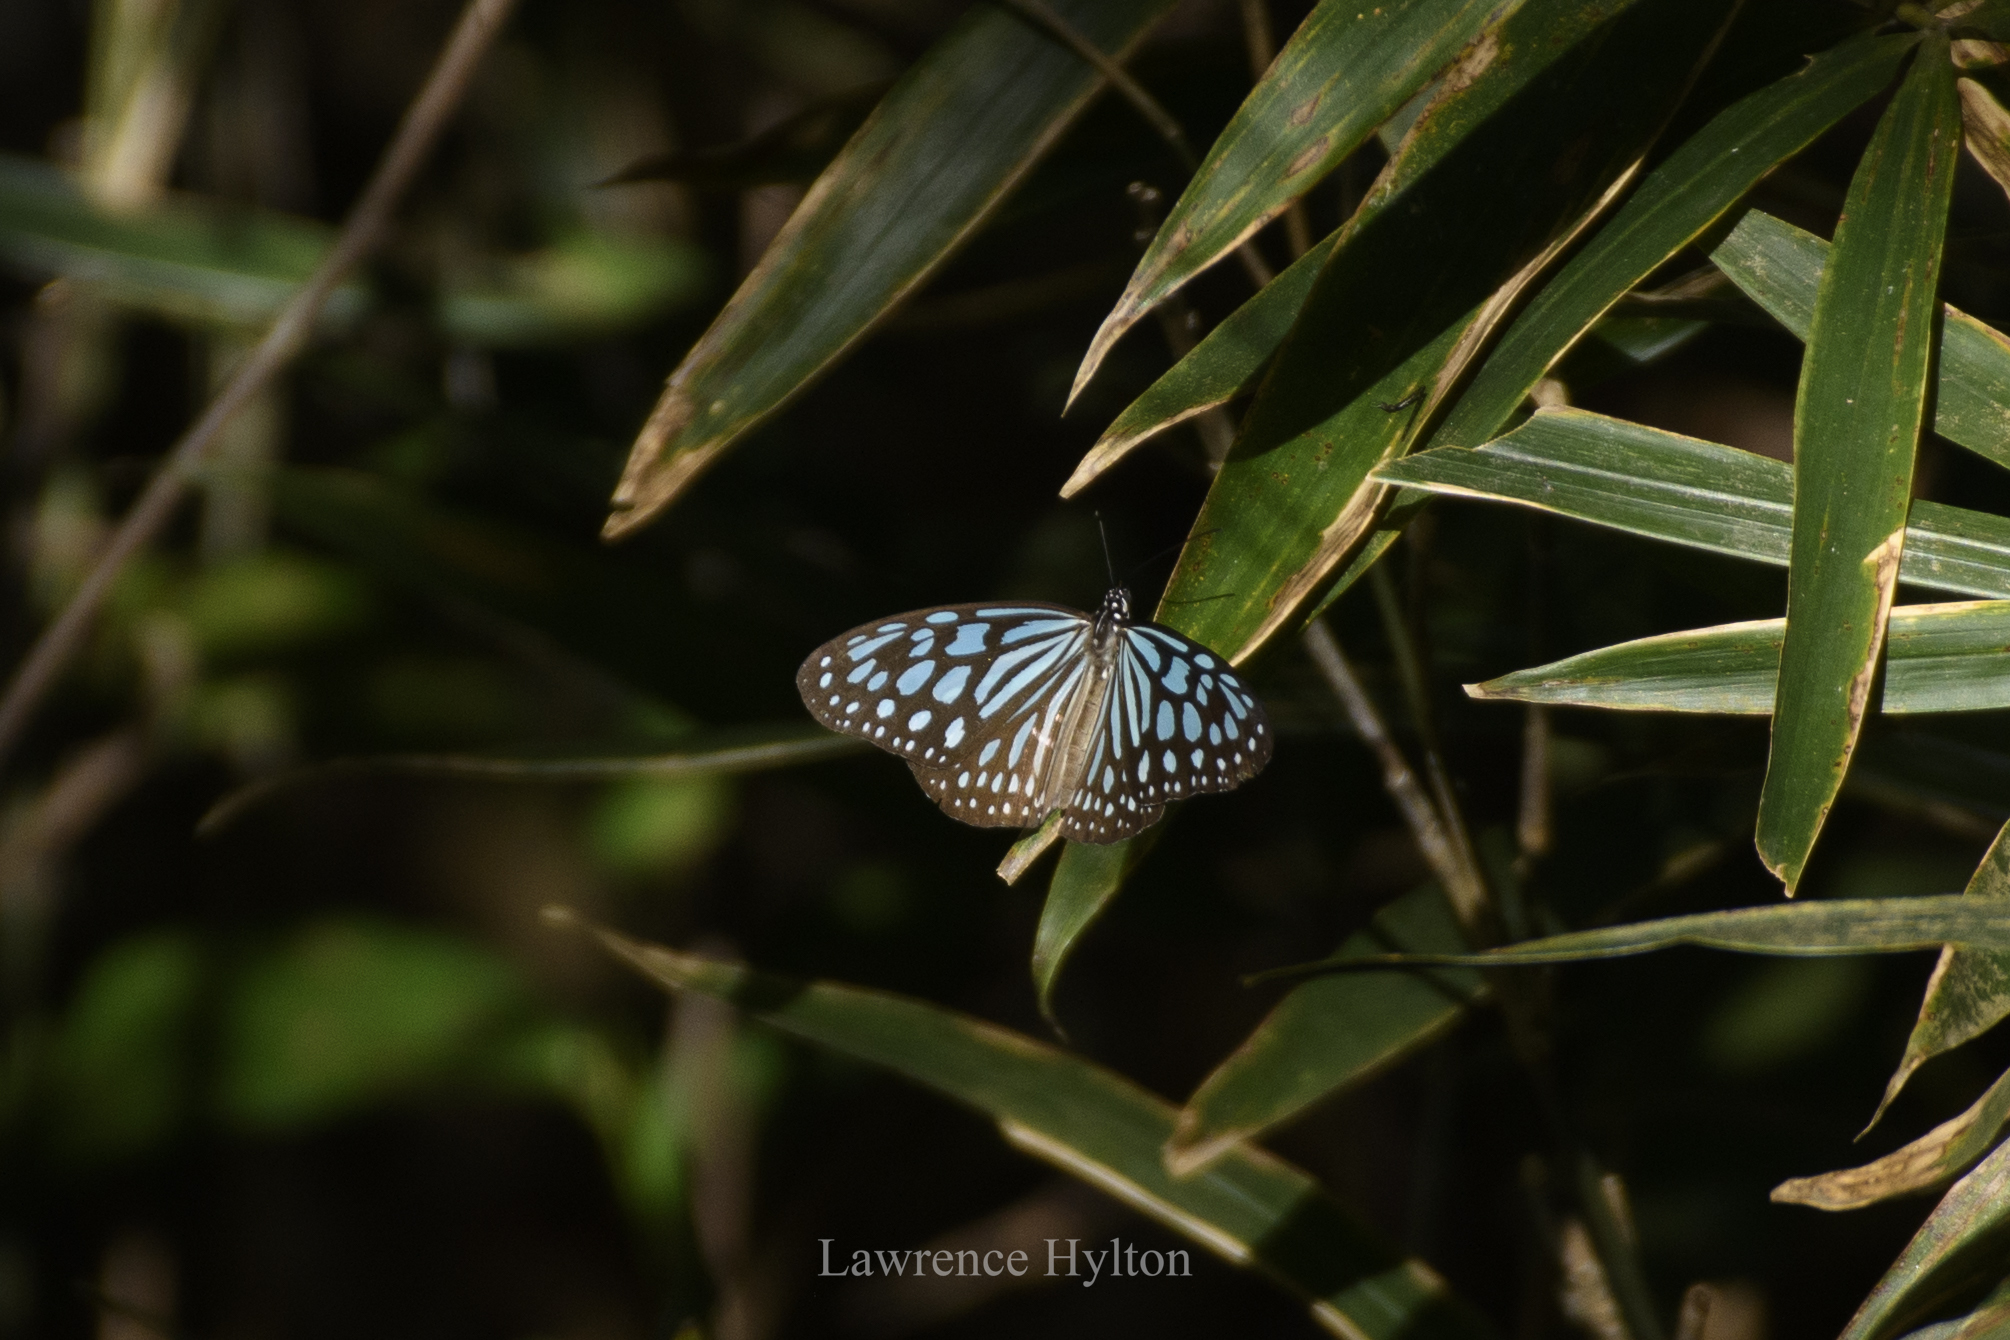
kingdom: Animalia
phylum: Arthropoda
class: Insecta
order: Lepidoptera
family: Nymphalidae
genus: Ideopsis
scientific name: Ideopsis similis
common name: Ceylon blue glassy tiger
